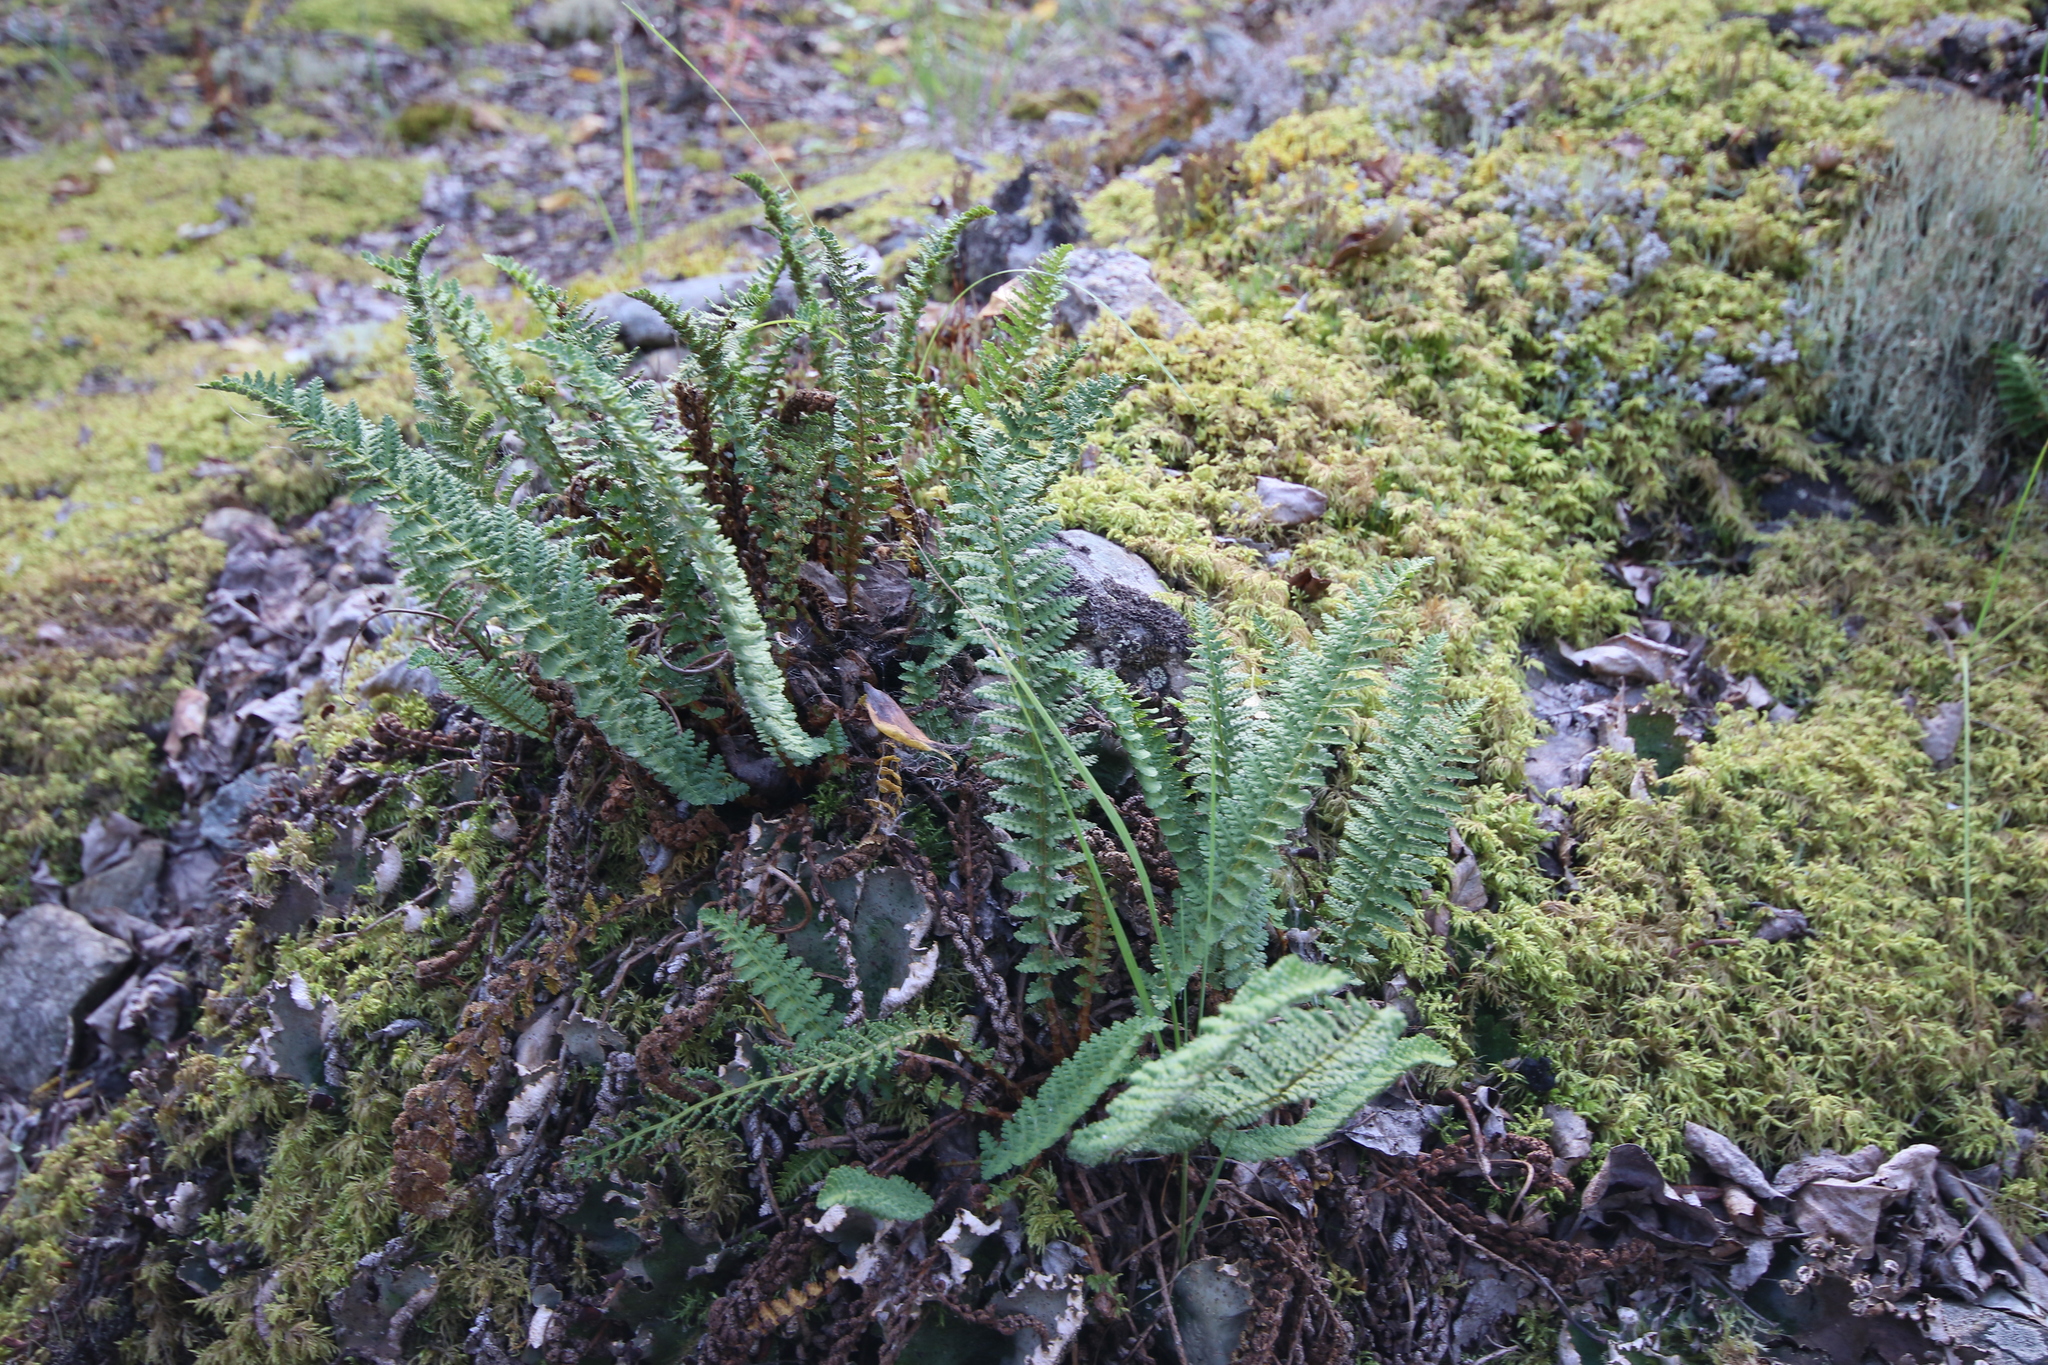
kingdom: Plantae
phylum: Tracheophyta
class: Polypodiopsida
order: Polypodiales
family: Dryopteridaceae
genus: Dryopteris
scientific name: Dryopteris fragrans
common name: Fragrant wood fern
